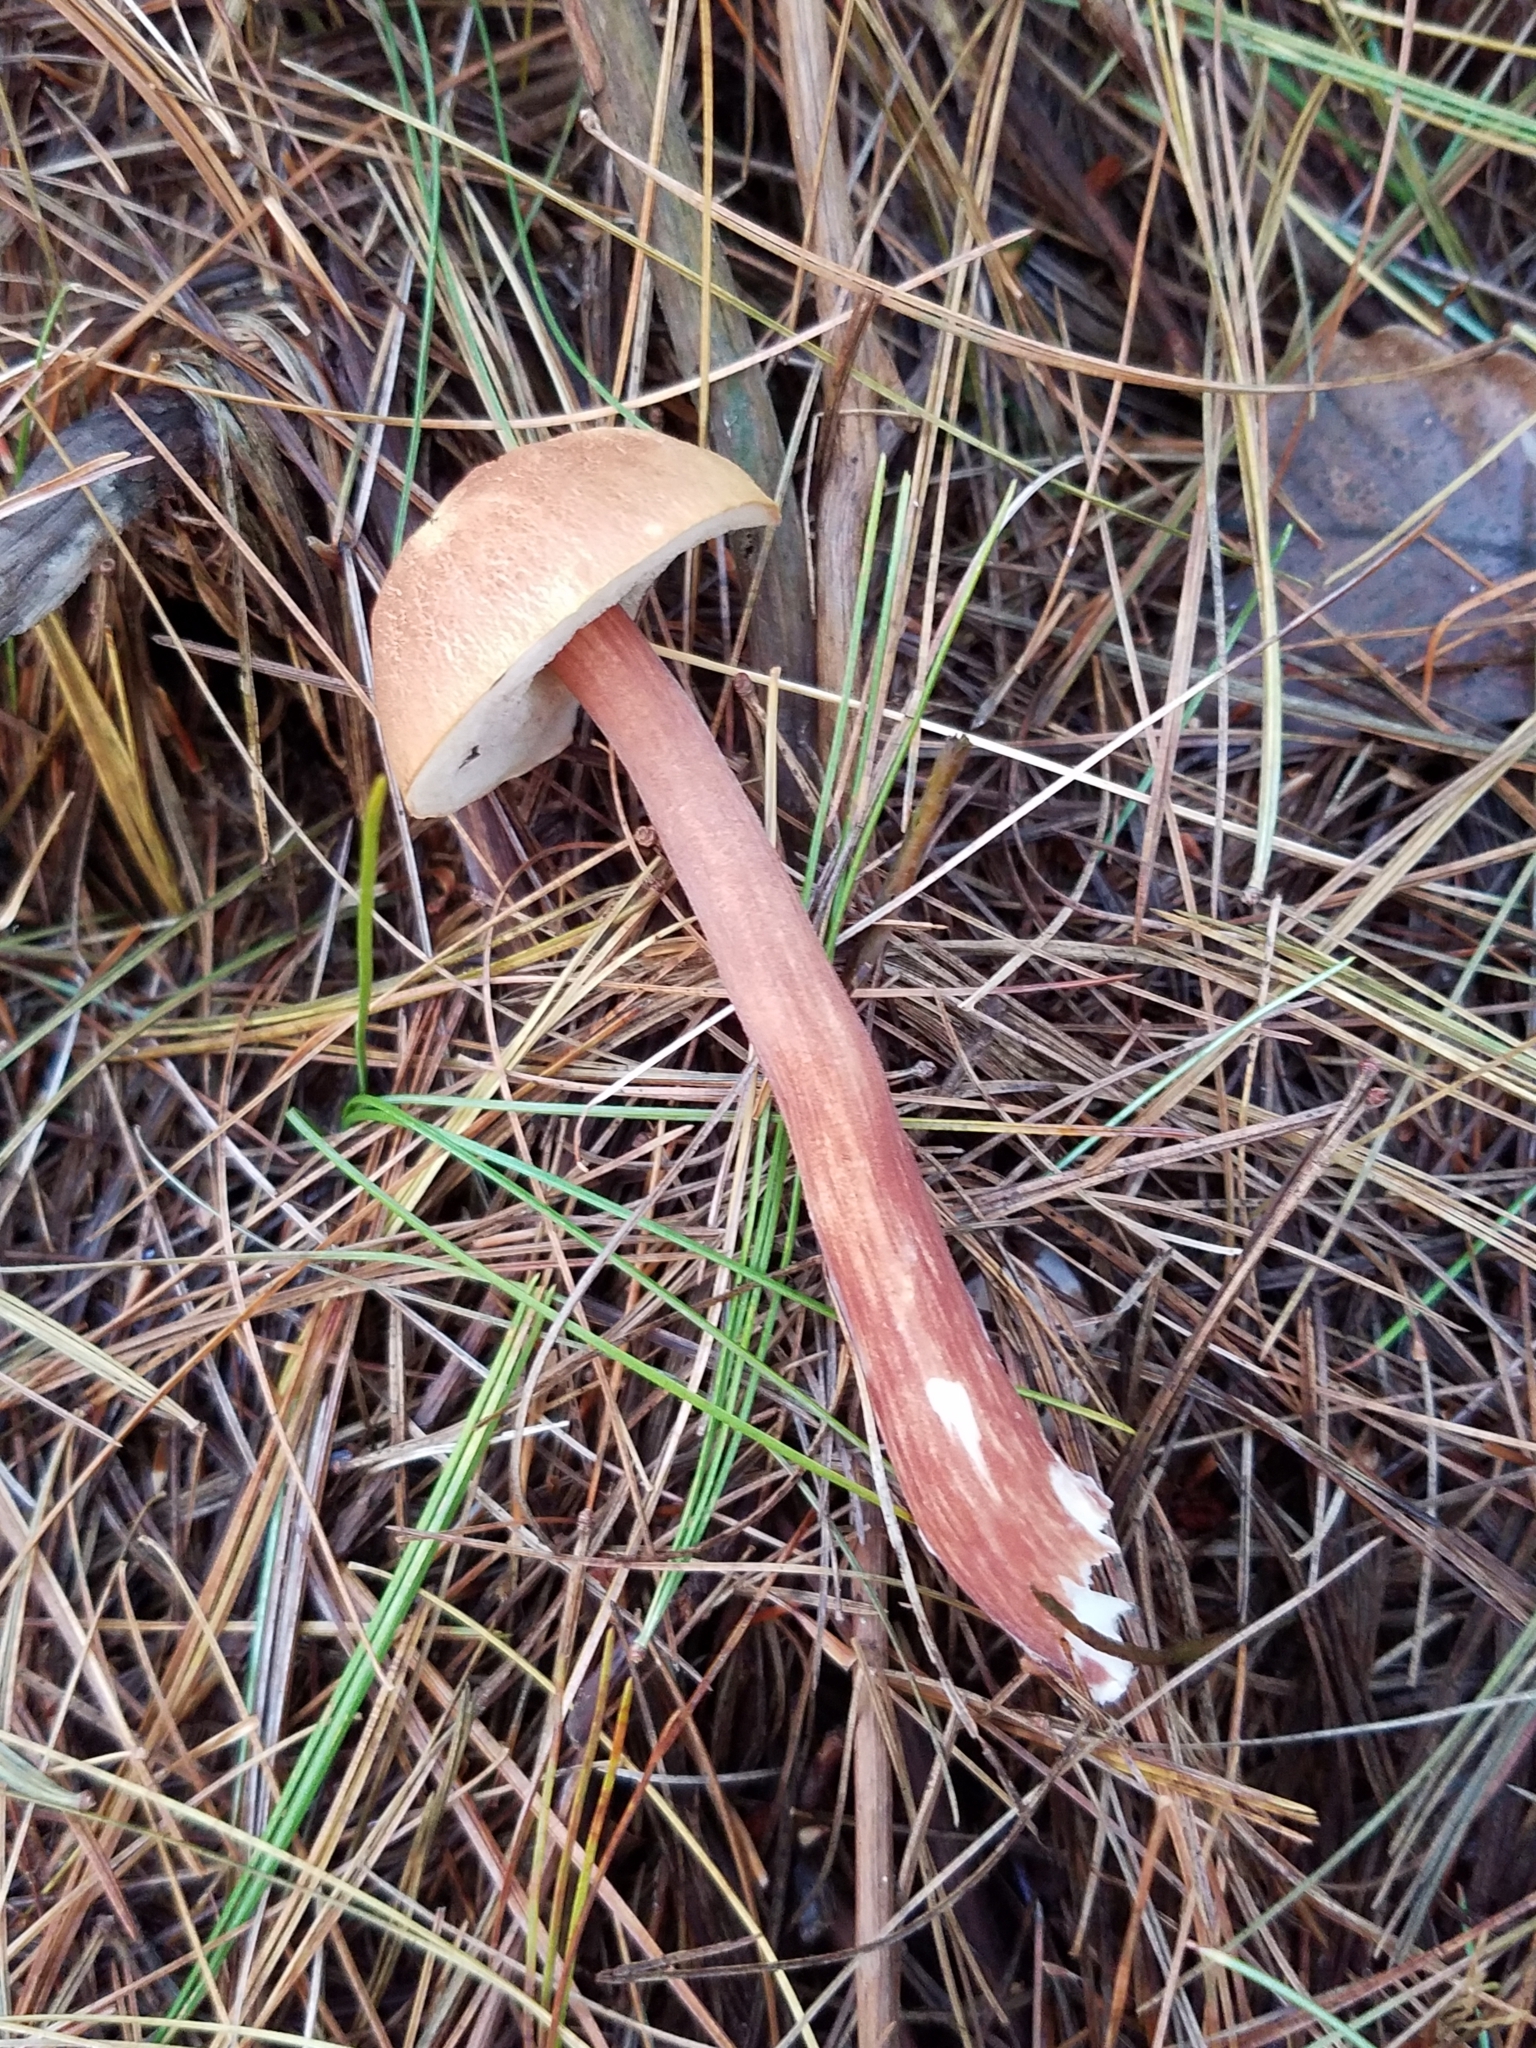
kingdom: Fungi
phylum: Basidiomycota
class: Agaricomycetes
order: Boletales
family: Boletaceae
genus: Austroboletus
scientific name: Austroboletus gracilis
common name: Graceful bolete
